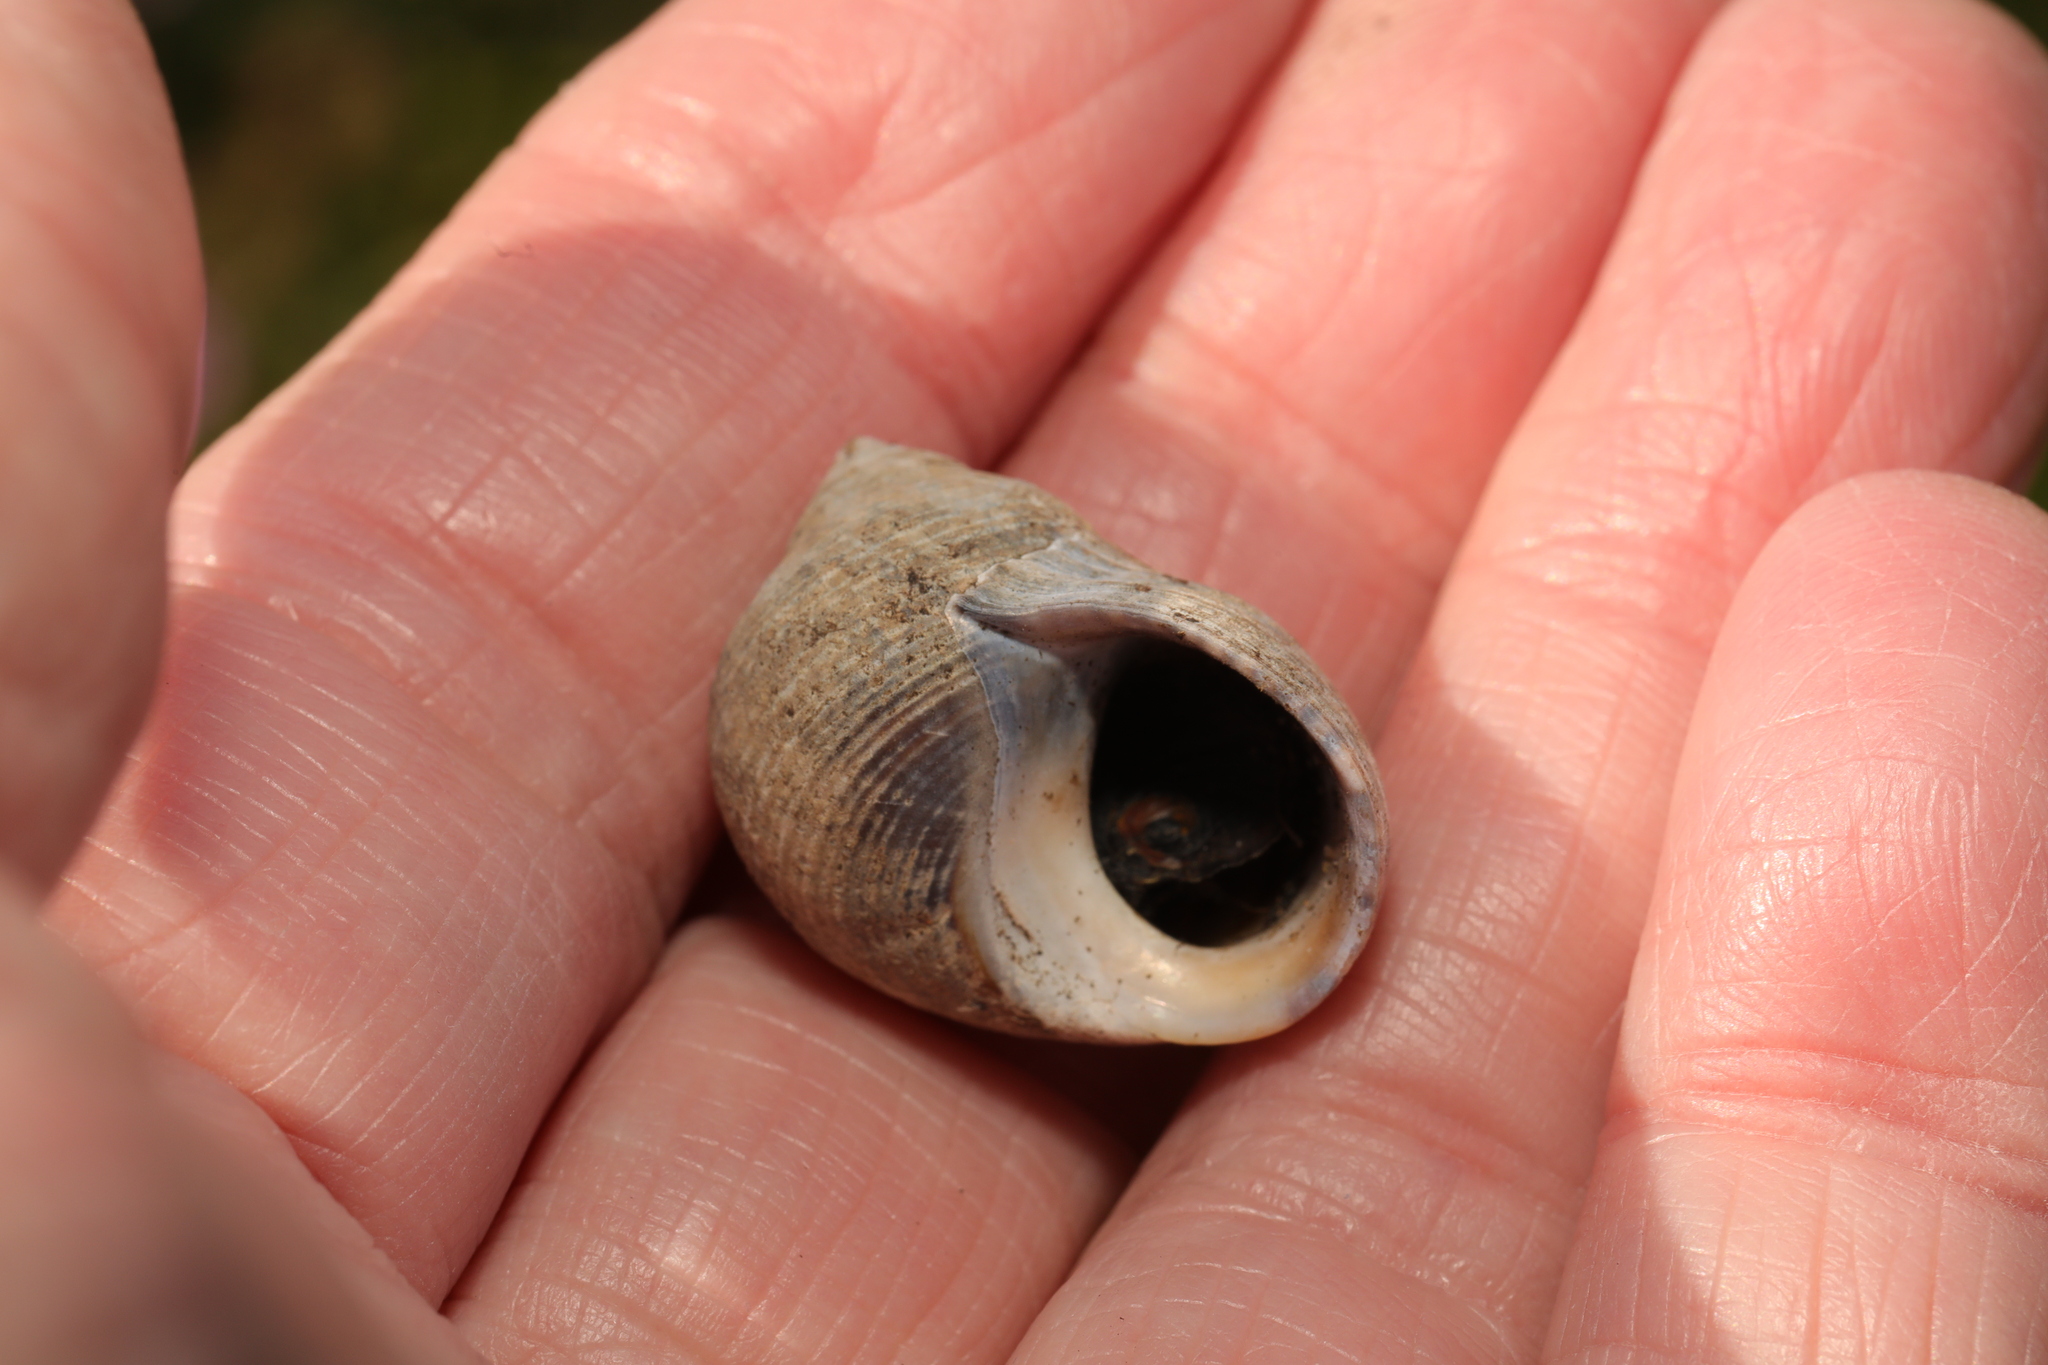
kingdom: Animalia
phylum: Mollusca
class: Gastropoda
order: Littorinimorpha
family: Littorinidae
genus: Littorina
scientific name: Littorina littorea
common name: Common periwinkle
